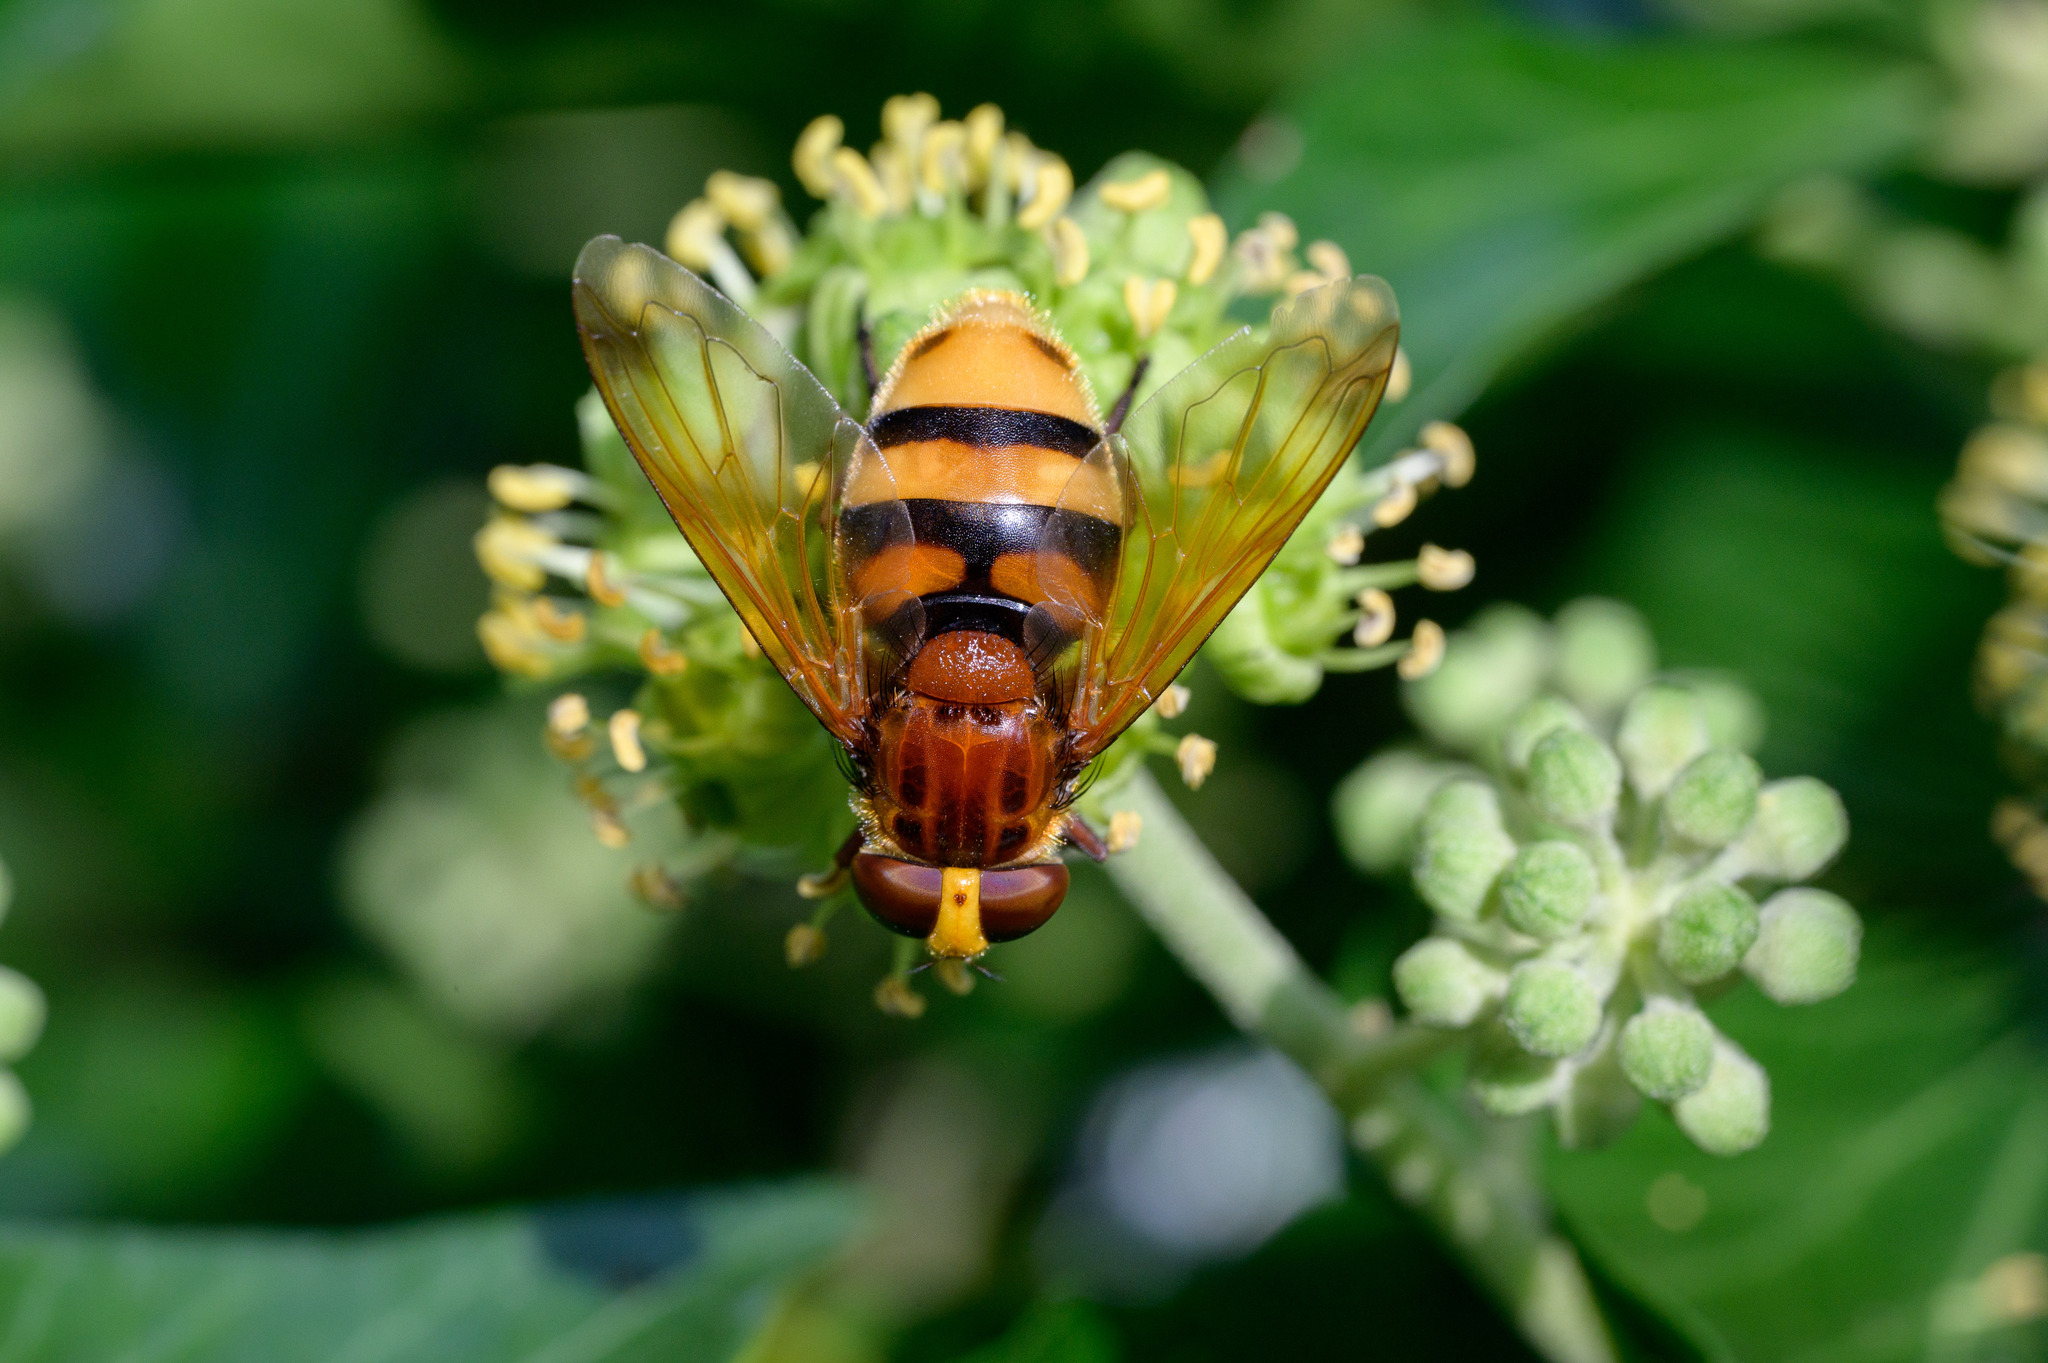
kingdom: Animalia
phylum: Arthropoda
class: Insecta
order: Diptera
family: Syrphidae
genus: Volucella
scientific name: Volucella zonaria
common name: Hornet hoverfly
